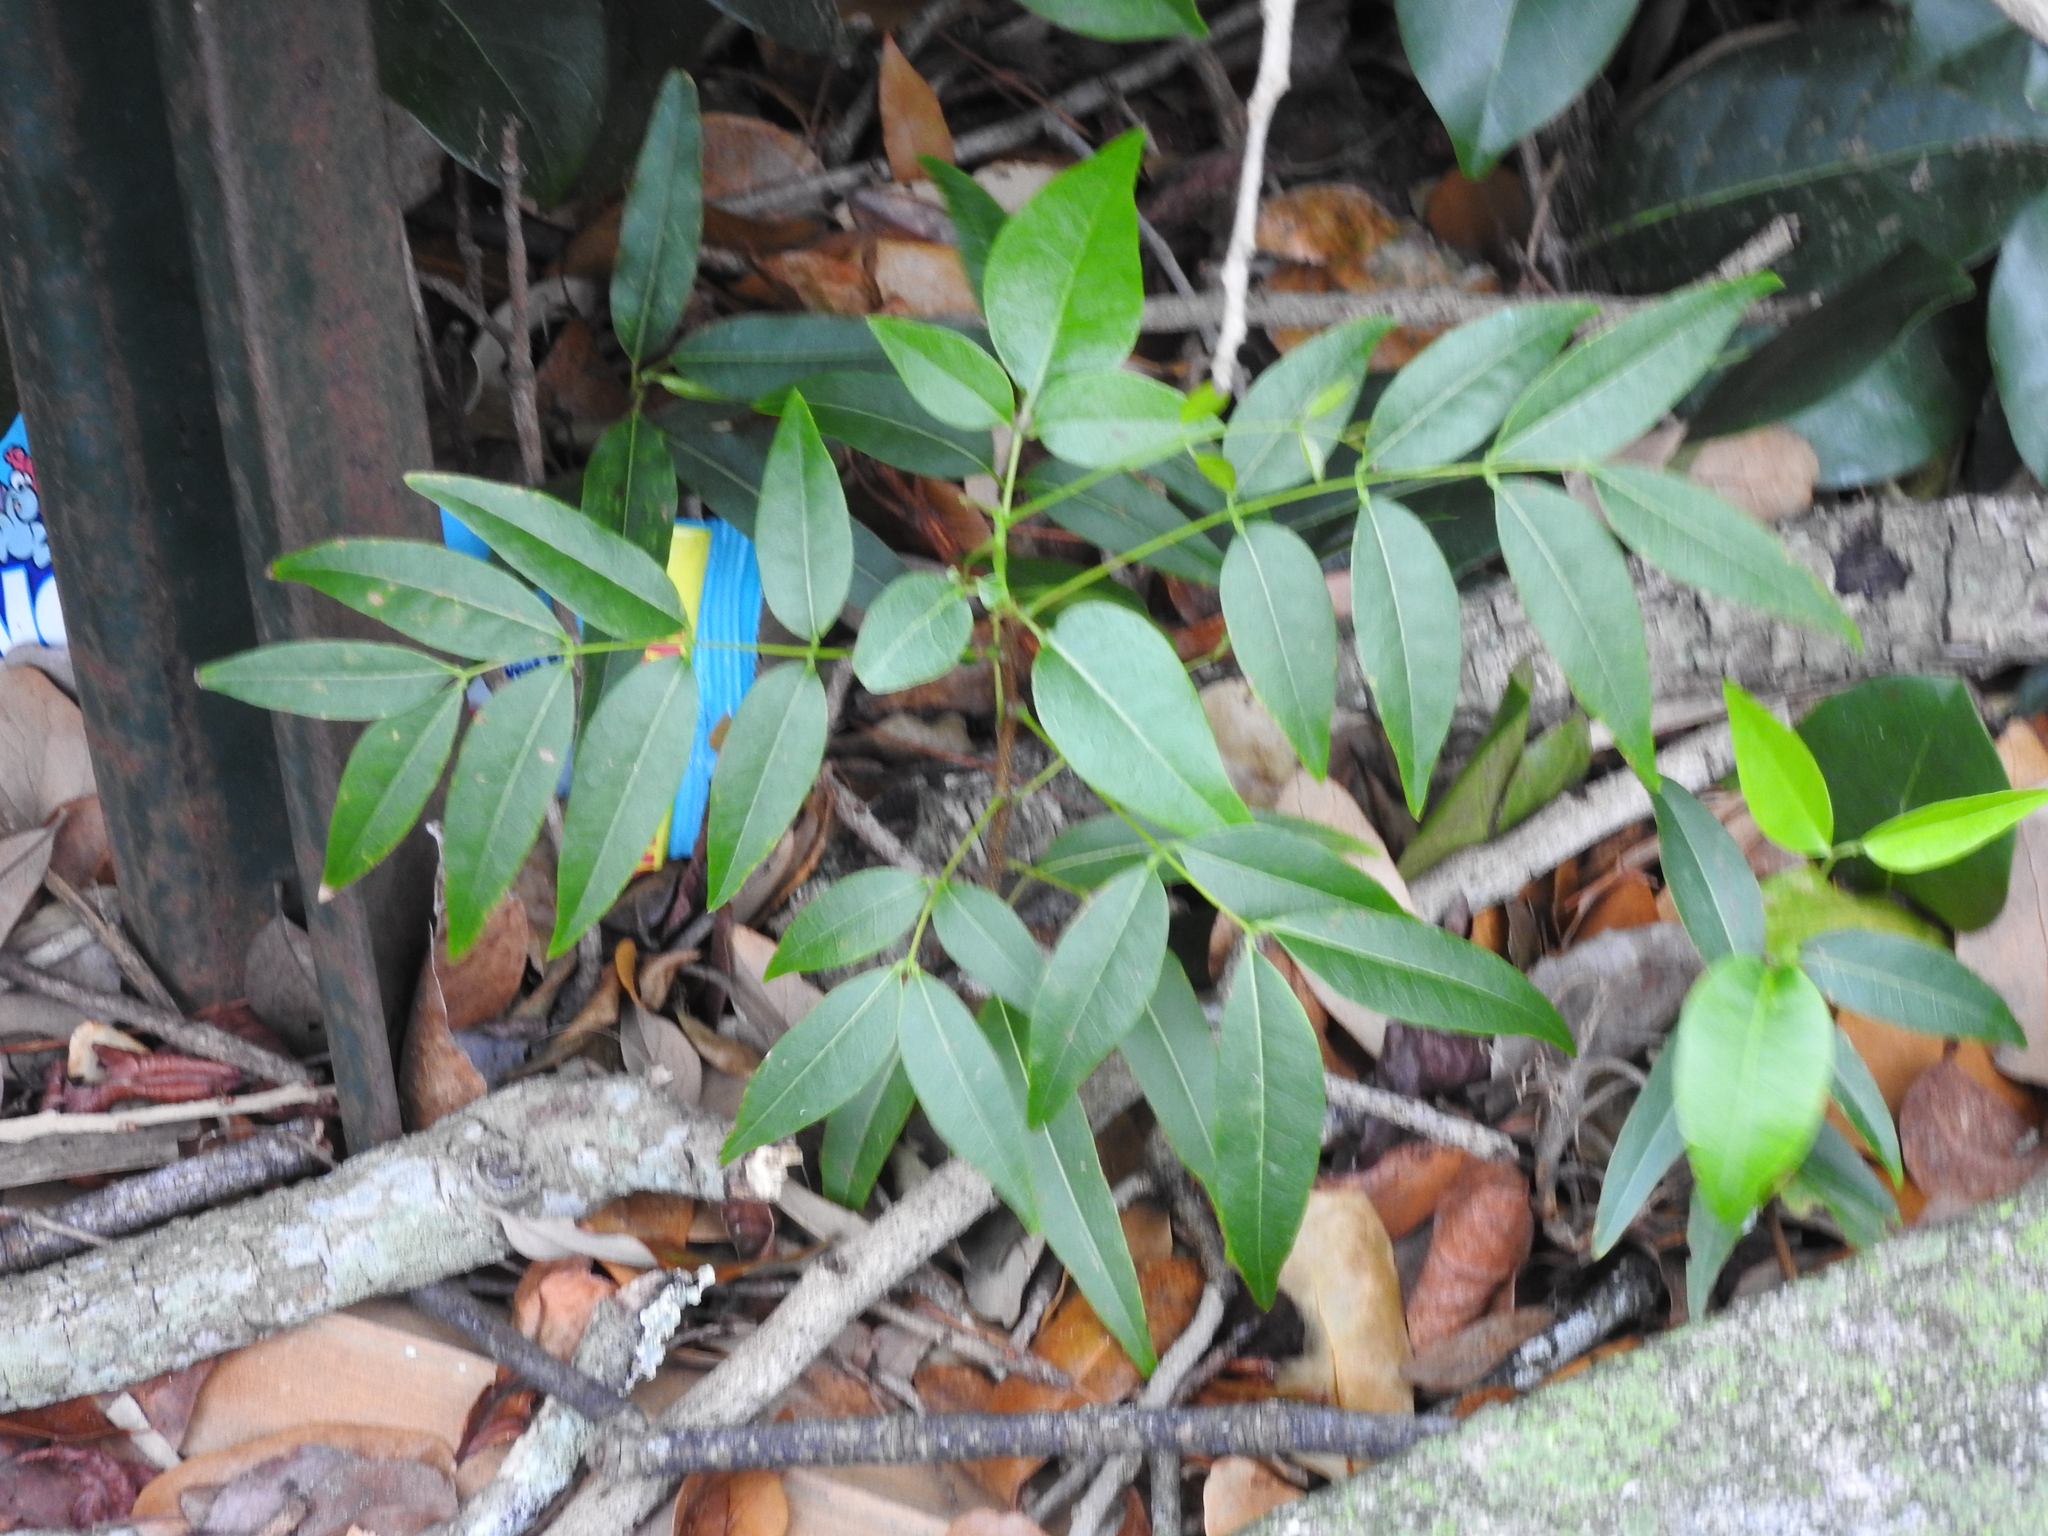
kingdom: Plantae
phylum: Tracheophyta
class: Magnoliopsida
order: Sapindales
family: Meliaceae
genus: Swietenia
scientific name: Swietenia mahagoni
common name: West indian mahogany
